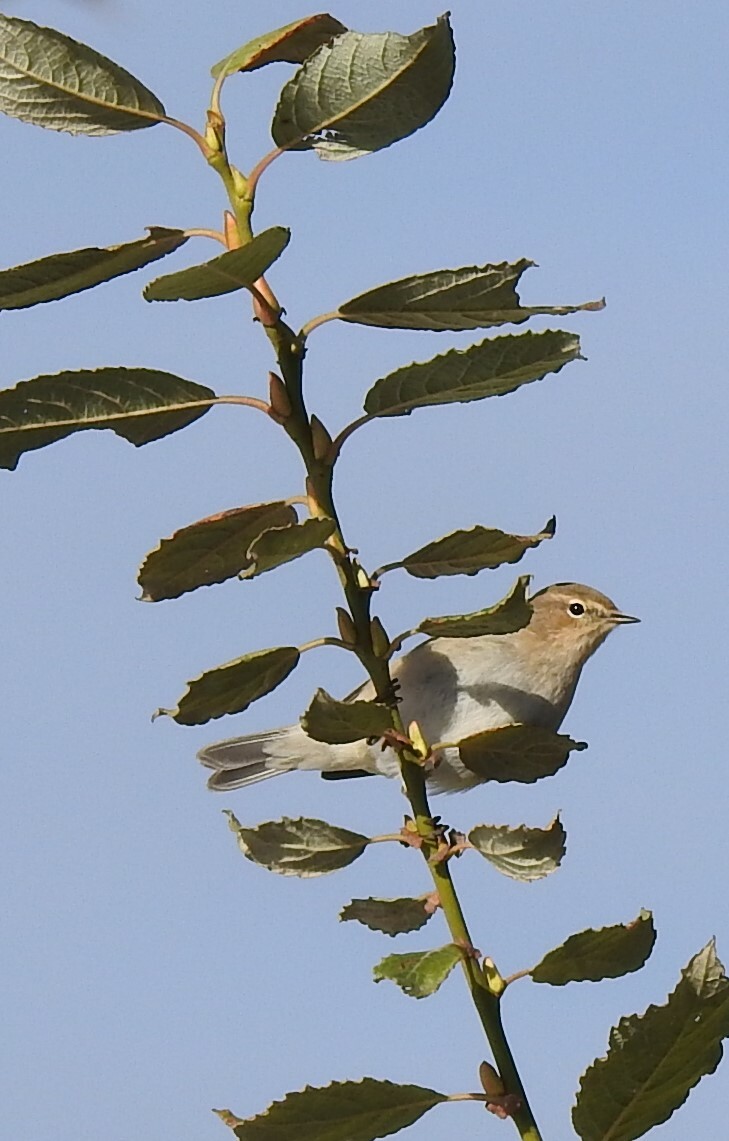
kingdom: Animalia
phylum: Chordata
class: Aves
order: Passeriformes
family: Phylloscopidae
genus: Phylloscopus
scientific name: Phylloscopus collybita
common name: Common chiffchaff
